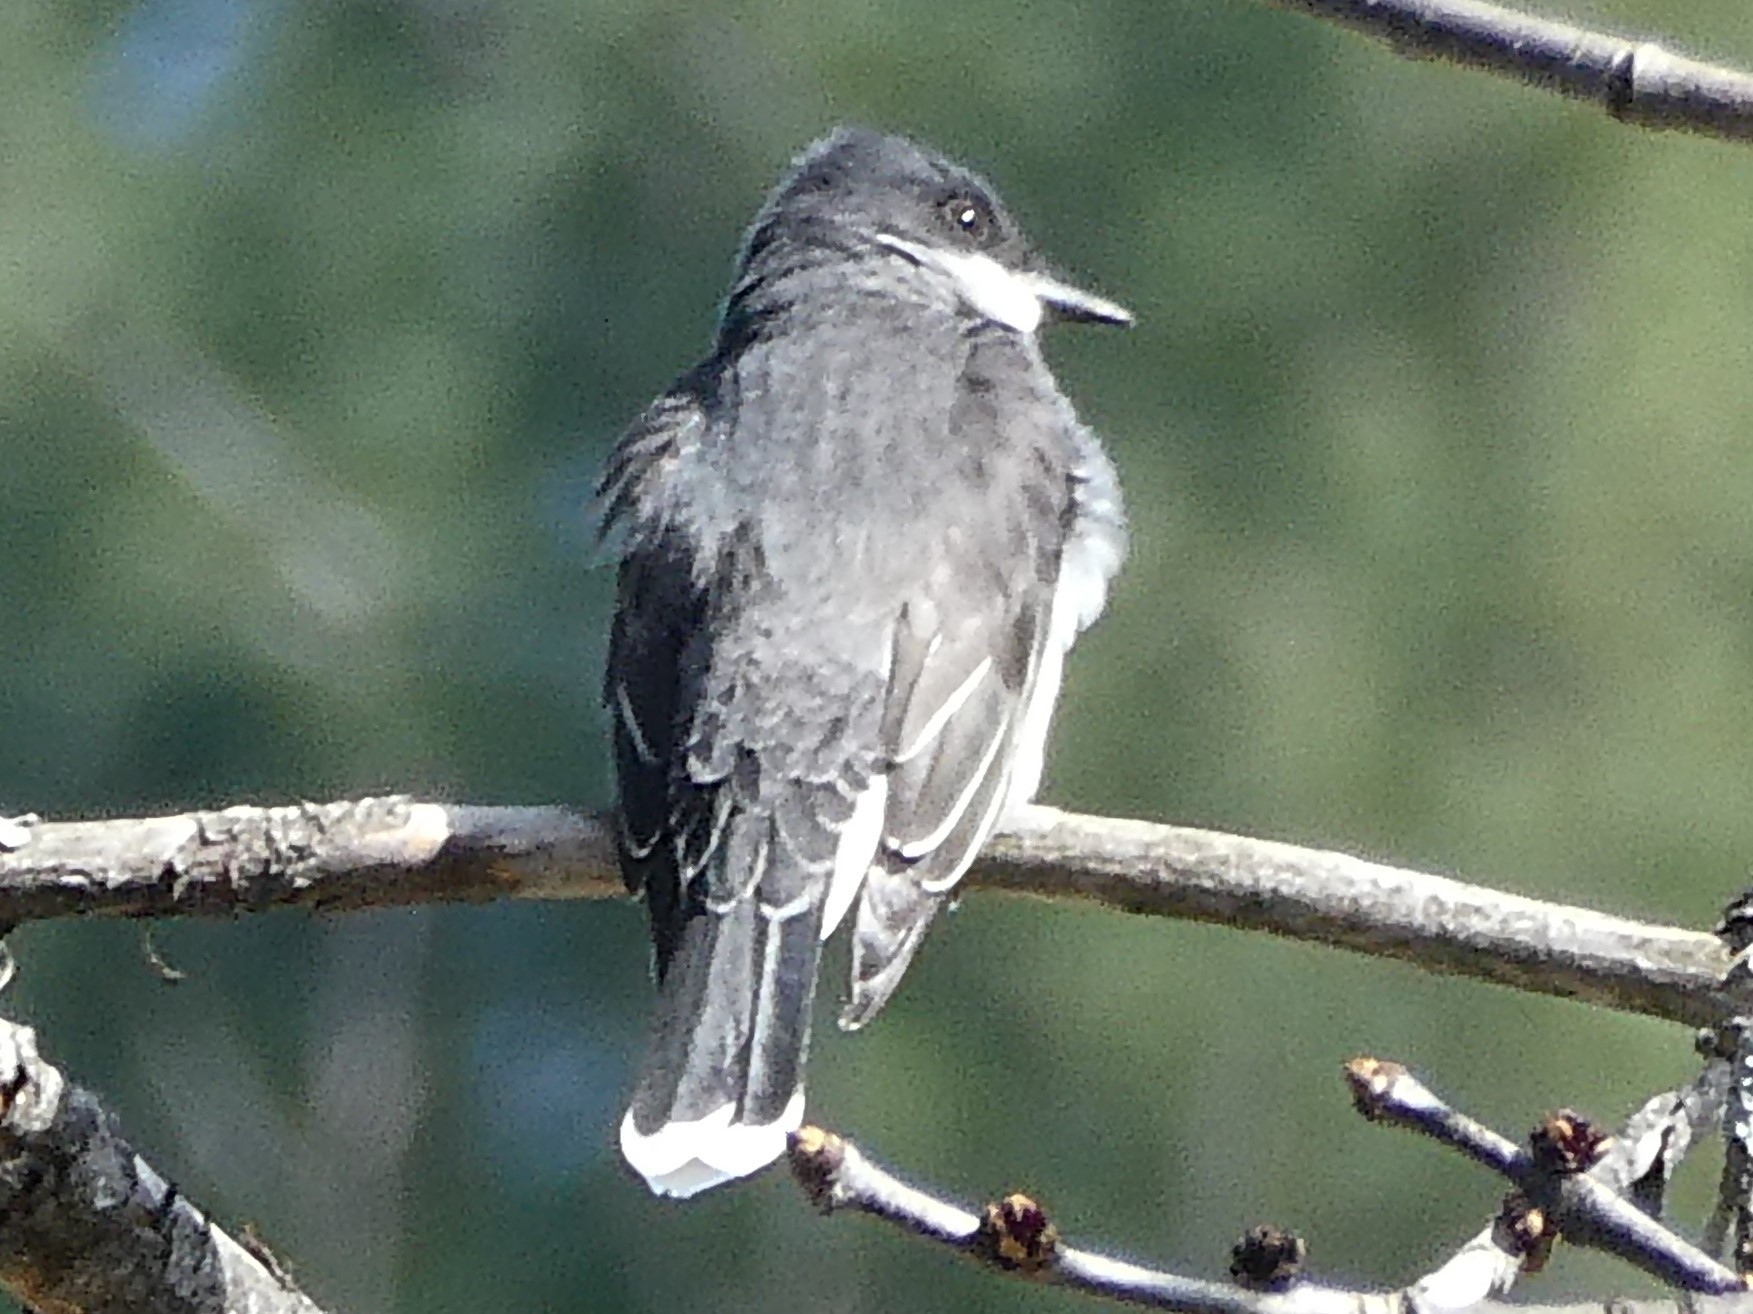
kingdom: Animalia
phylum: Chordata
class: Aves
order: Passeriformes
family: Tyrannidae
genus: Tyrannus
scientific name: Tyrannus tyrannus
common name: Eastern kingbird
